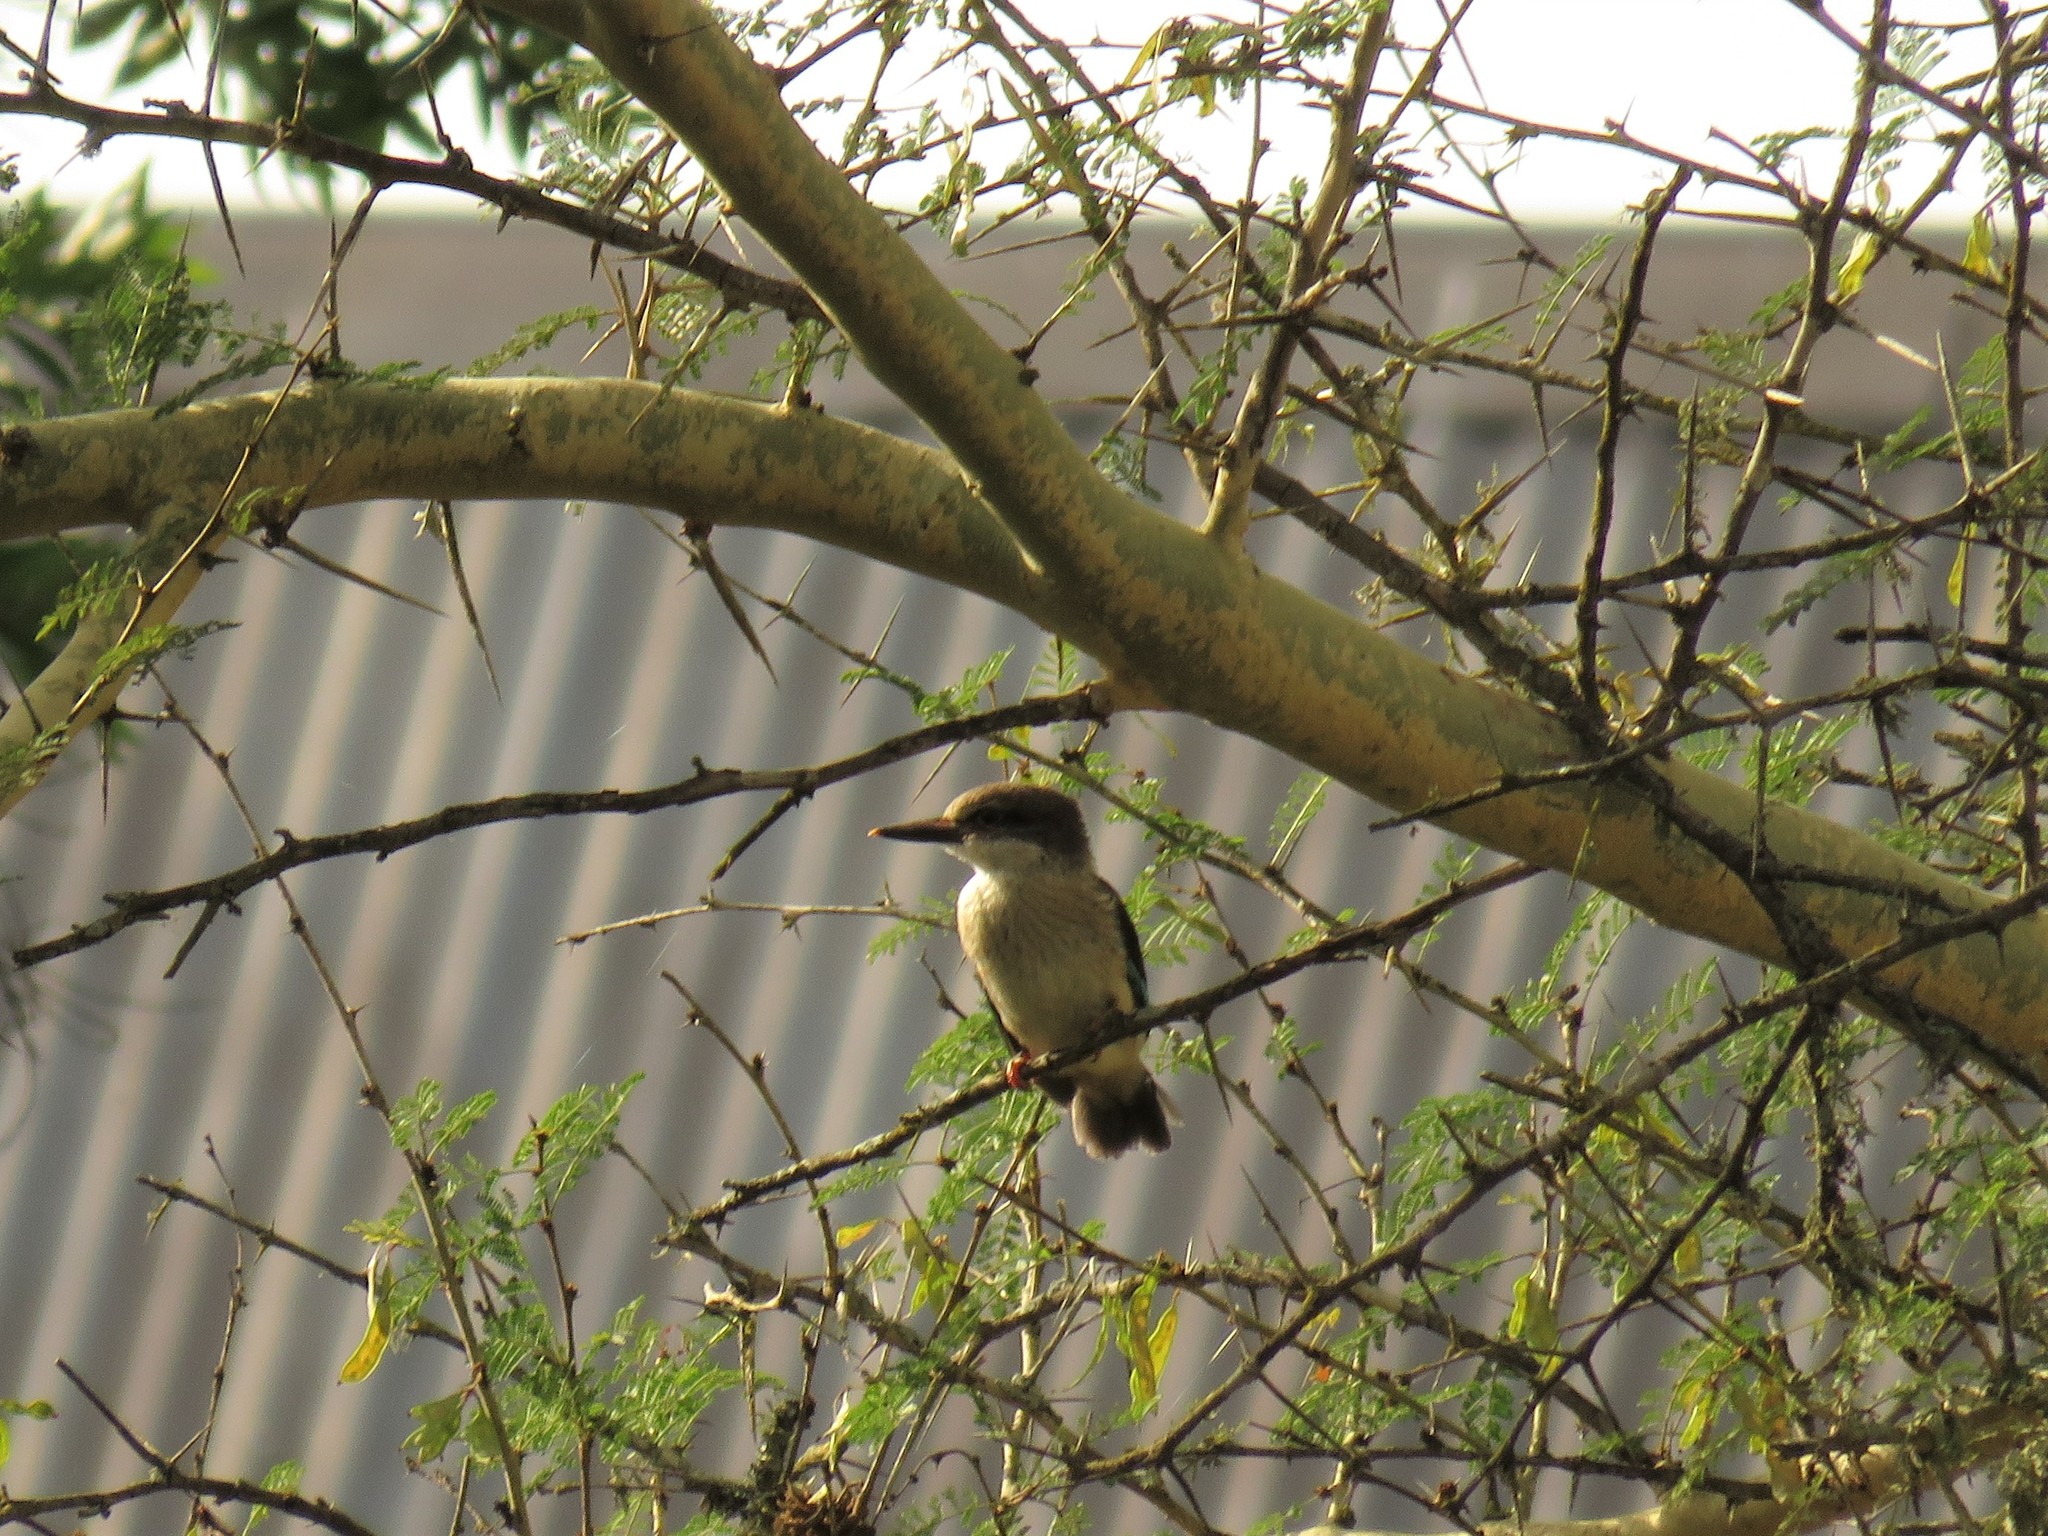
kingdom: Animalia
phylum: Chordata
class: Aves
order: Coraciiformes
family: Alcedinidae
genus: Halcyon
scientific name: Halcyon albiventris
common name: Brown-hooded kingfisher
